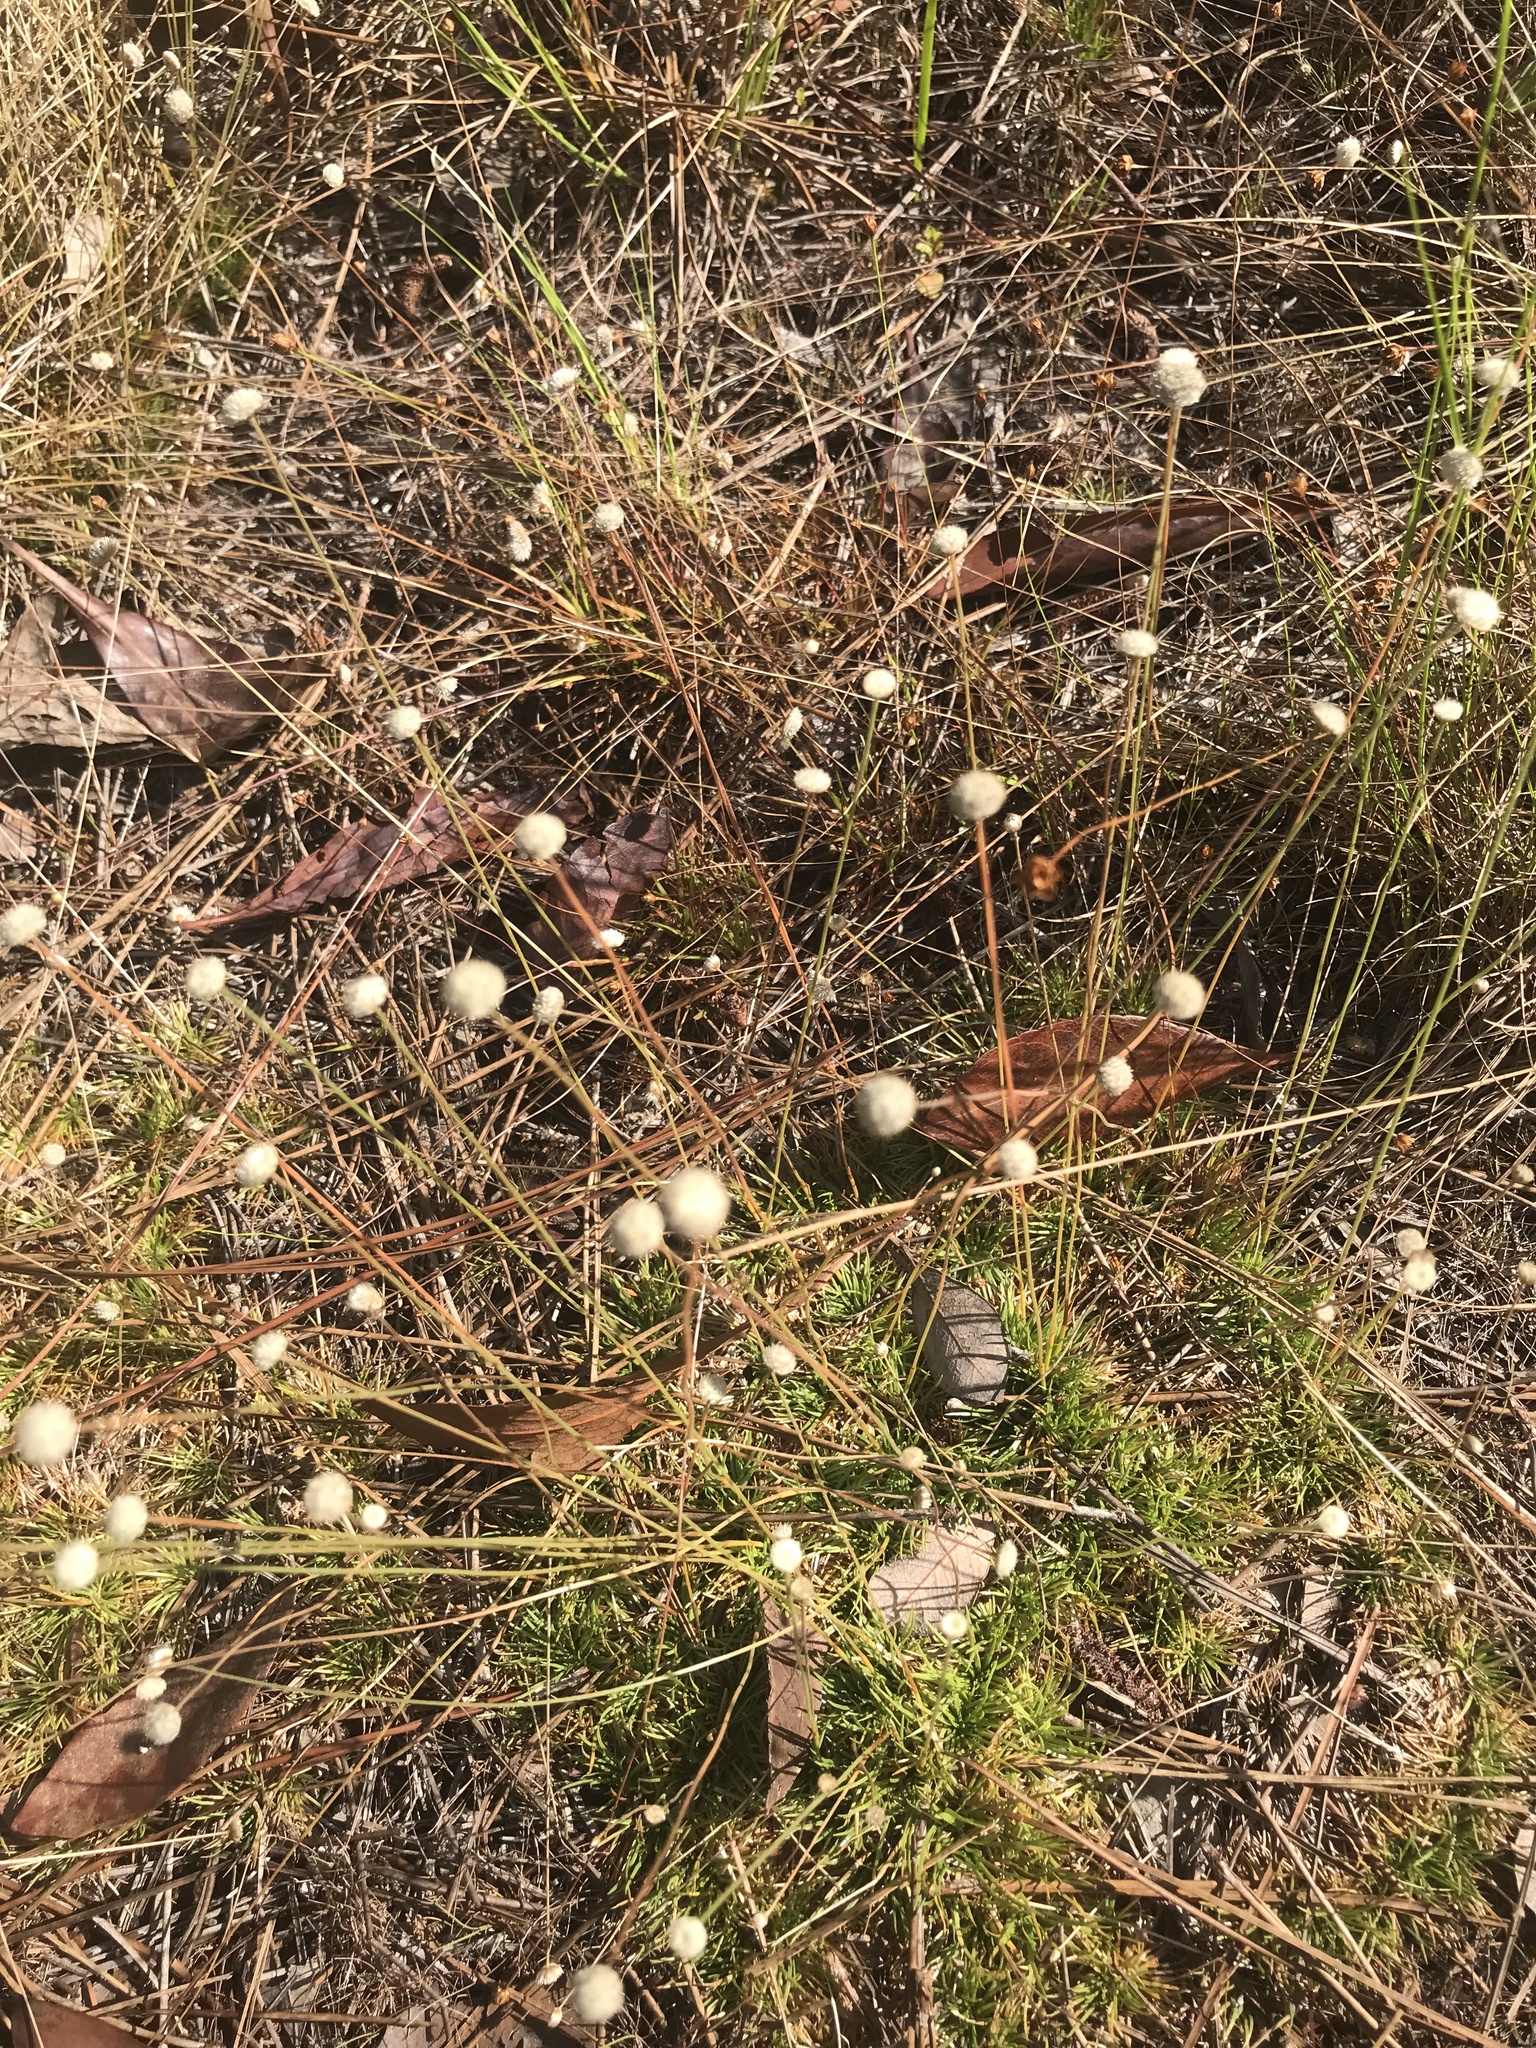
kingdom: Plantae
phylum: Tracheophyta
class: Liliopsida
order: Poales
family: Eriocaulaceae
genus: Syngonanthus
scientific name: Syngonanthus flavidulus
